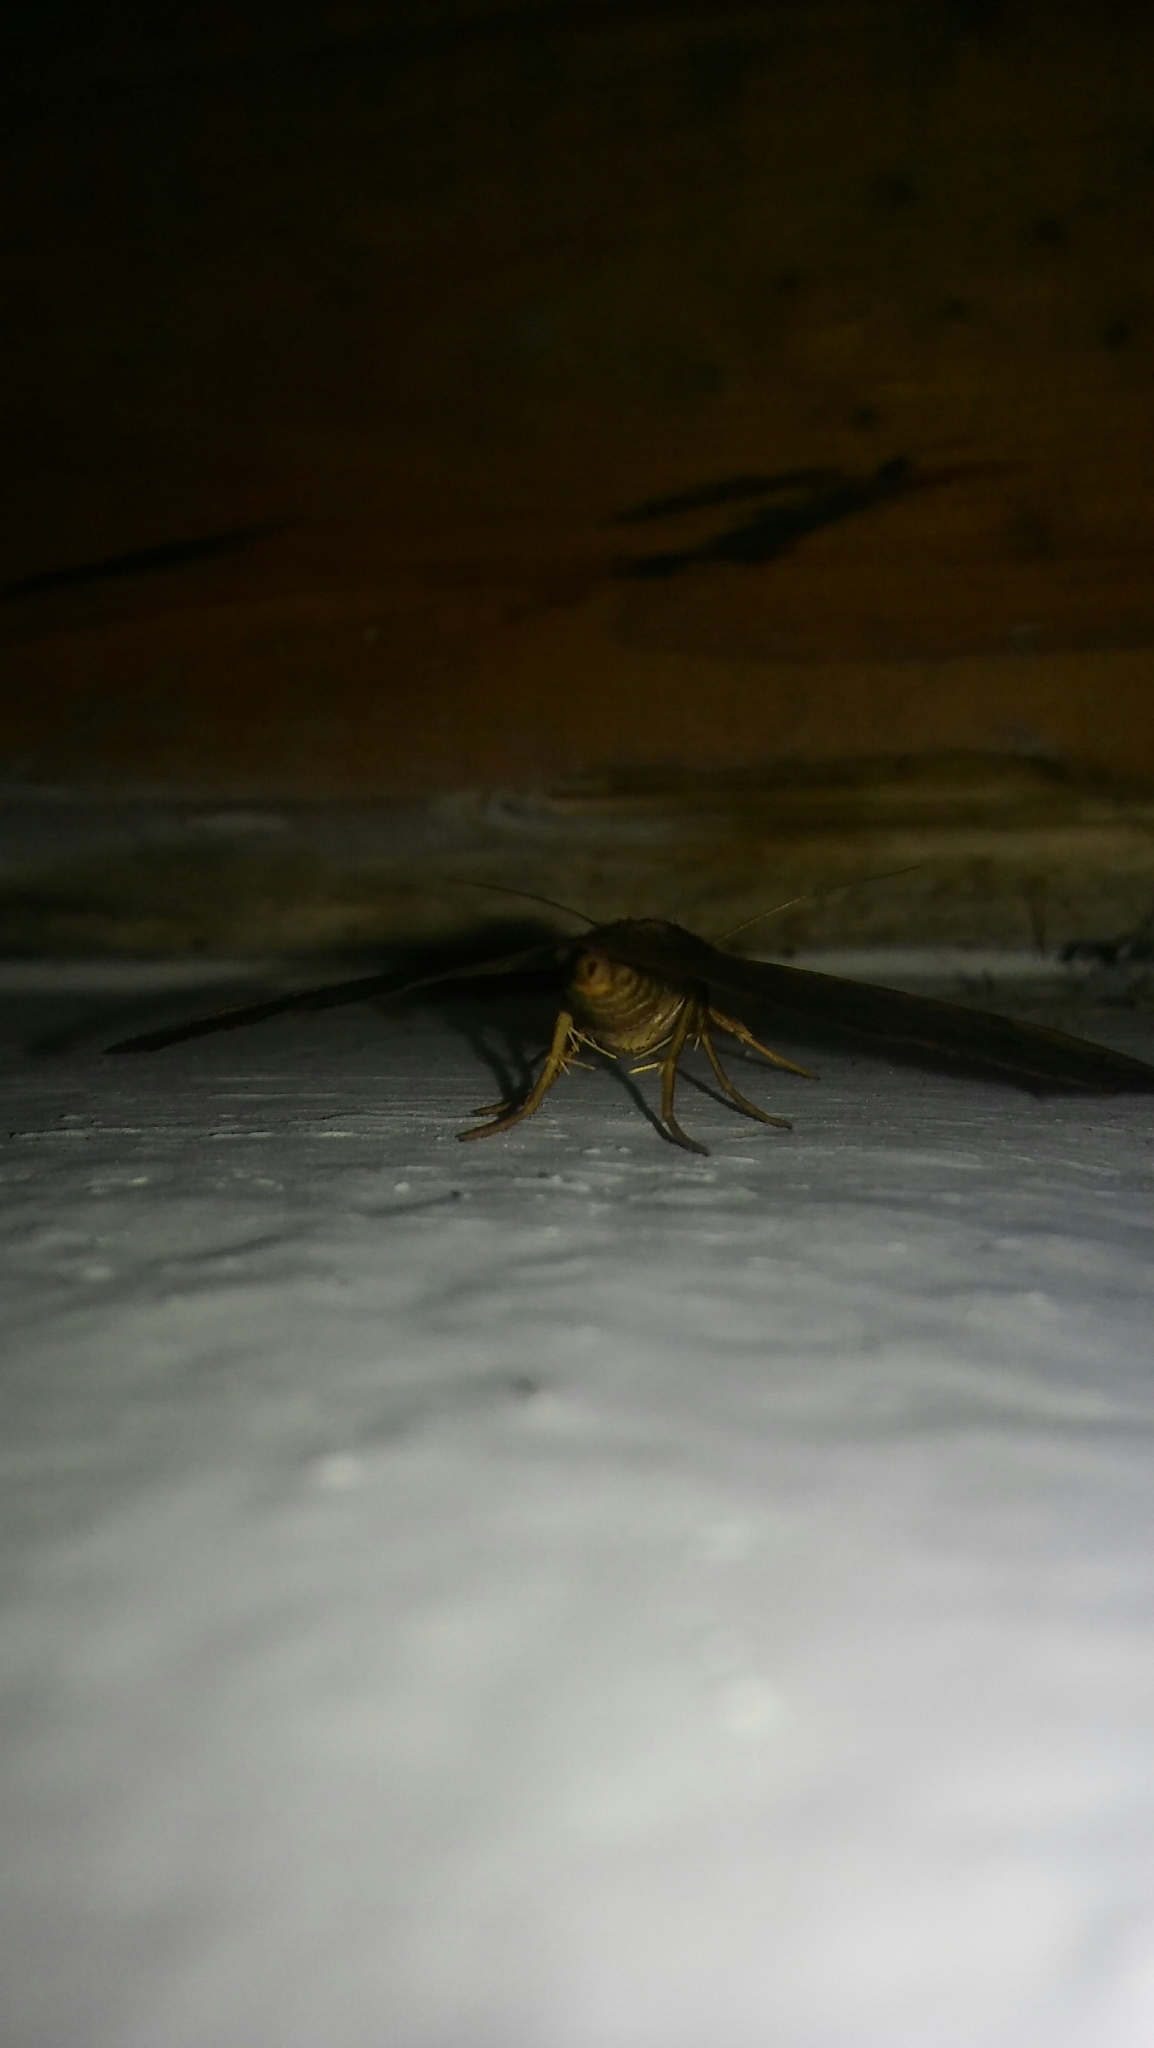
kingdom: Animalia
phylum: Arthropoda
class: Insecta
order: Lepidoptera
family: Erebidae
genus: Anticarsia
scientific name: Anticarsia gemmatalis
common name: Cutworm moth
